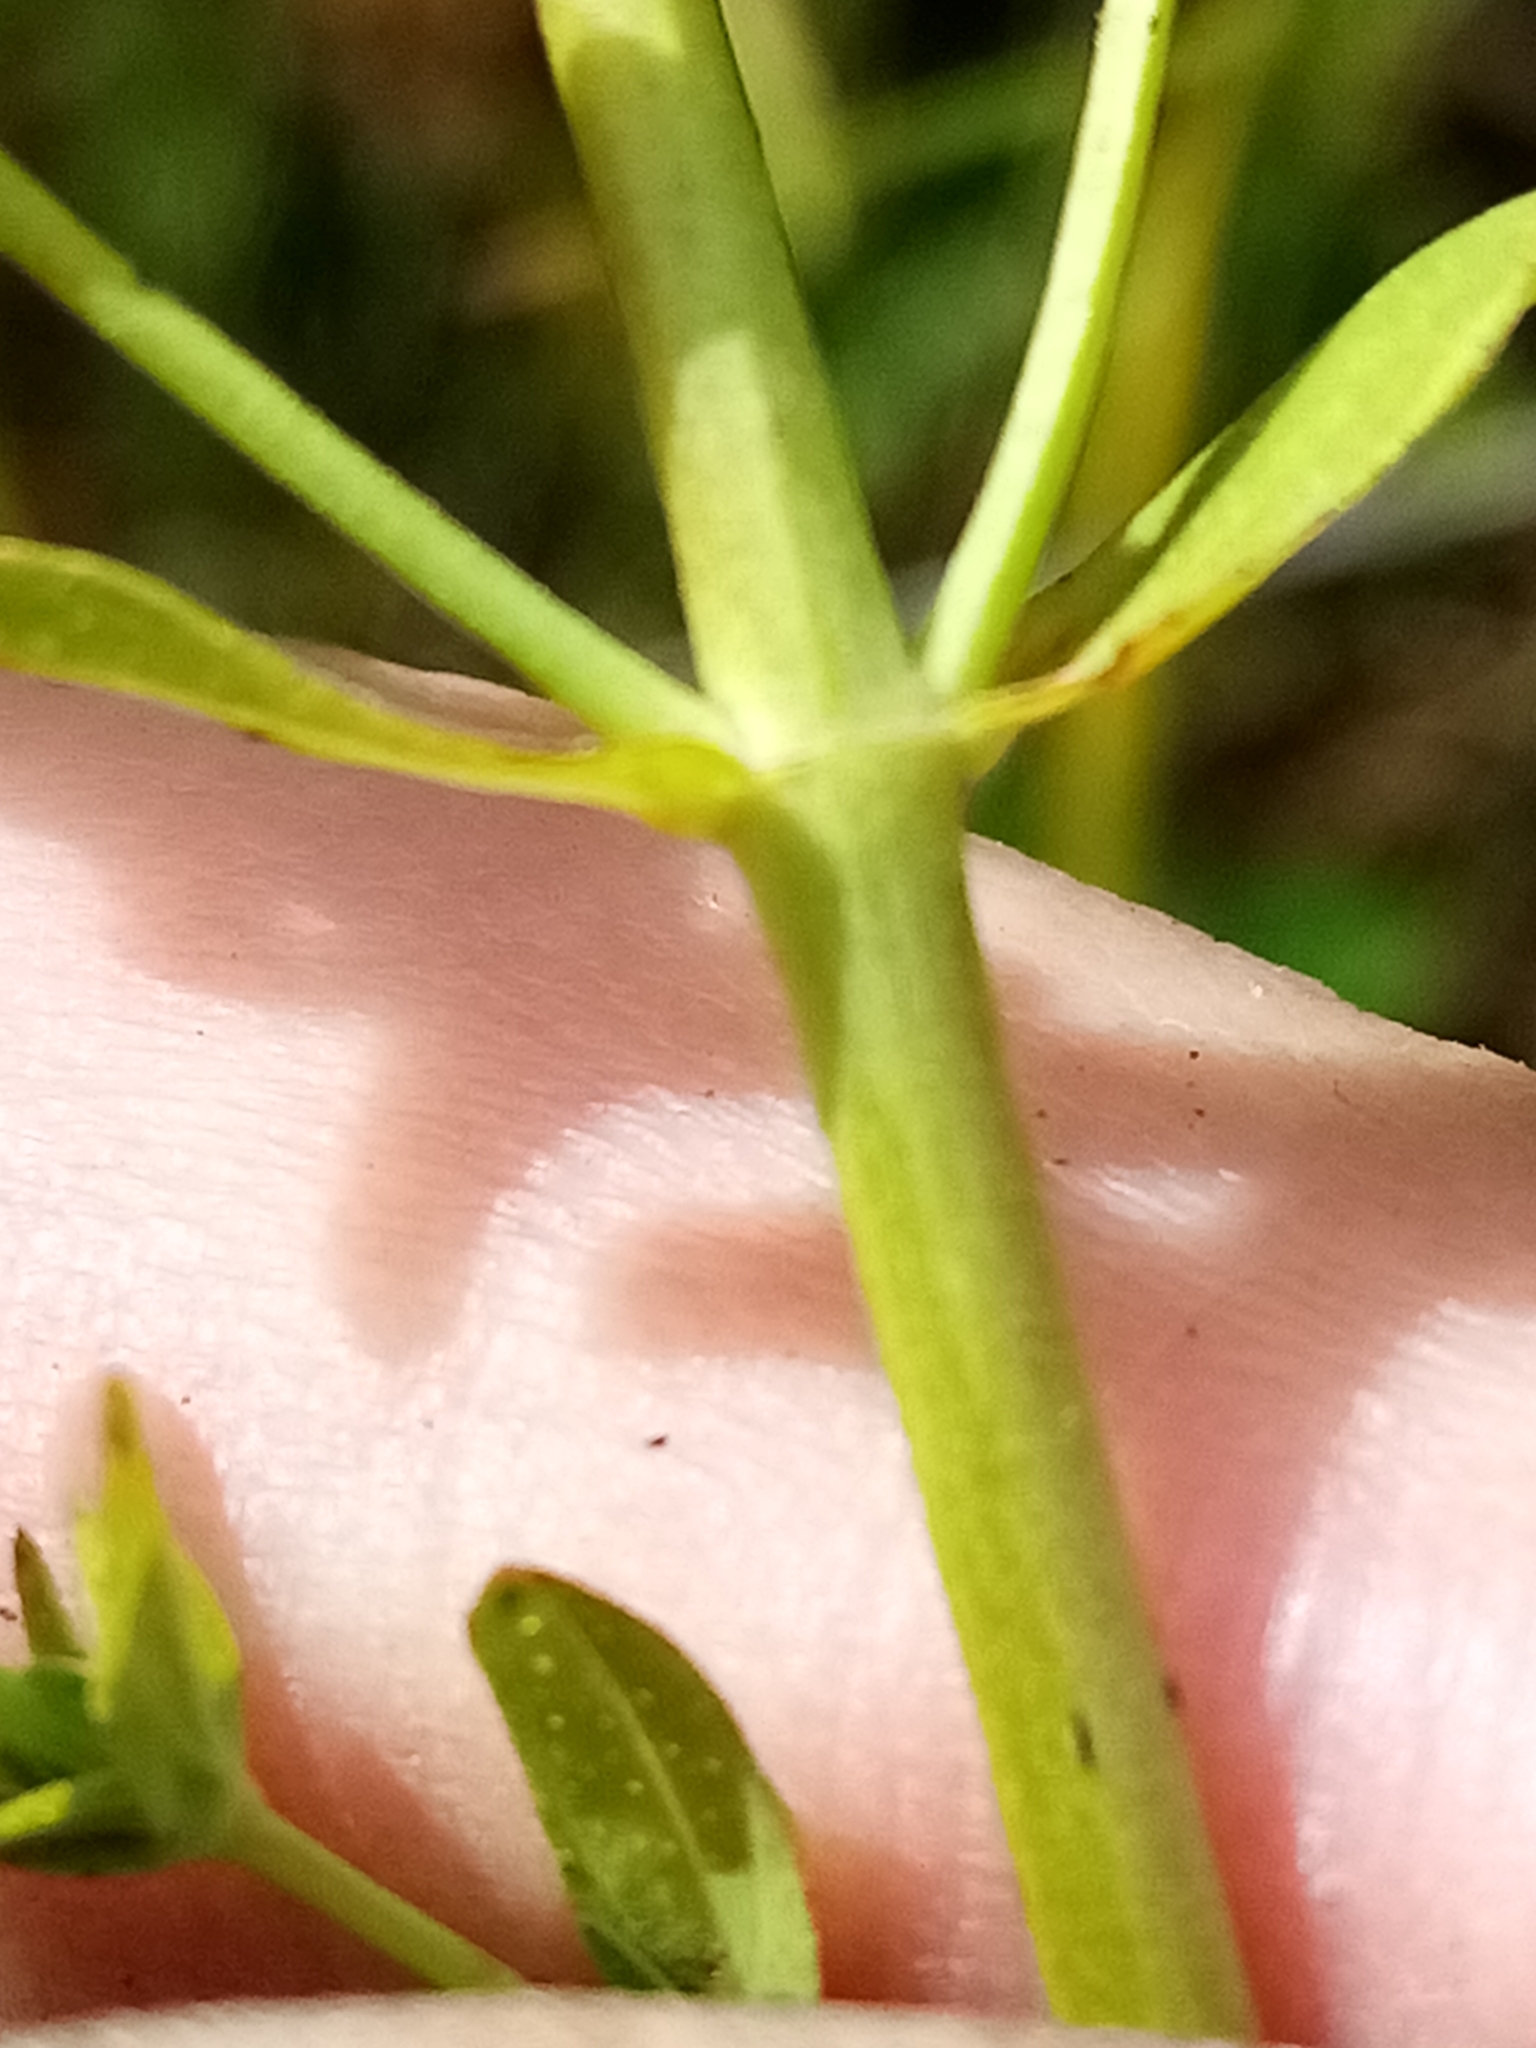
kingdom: Plantae
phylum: Tracheophyta
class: Magnoliopsida
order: Malpighiales
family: Hypericaceae
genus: Hypericum
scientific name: Hypericum perforatum
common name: Common st. johnswort
